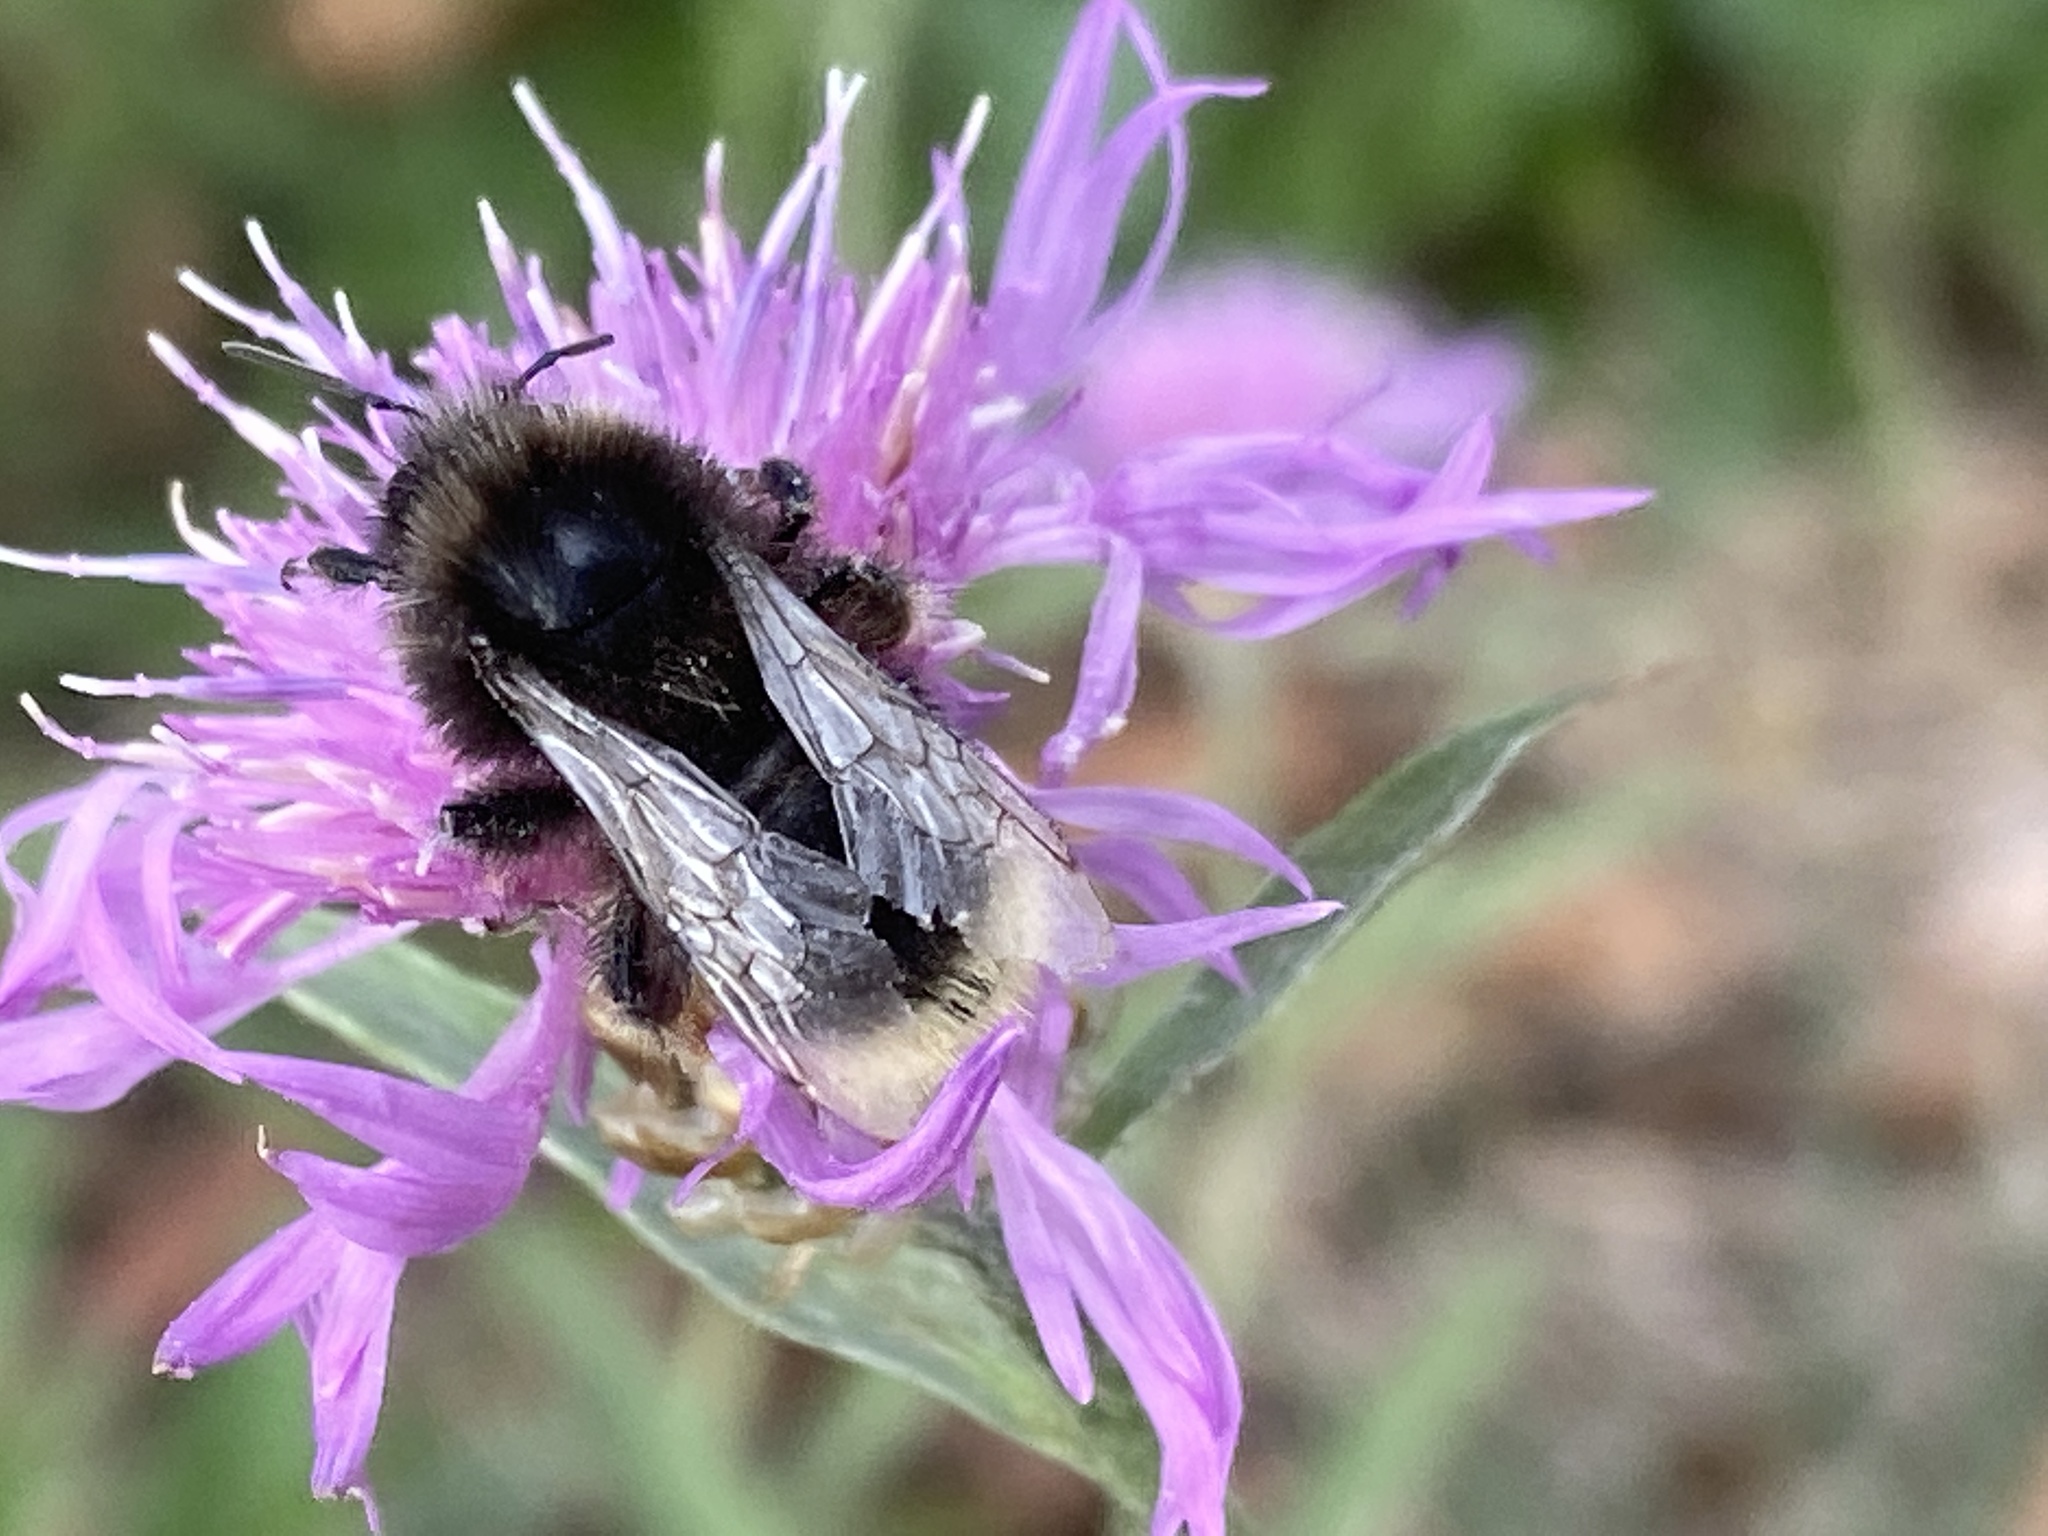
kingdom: Animalia
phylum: Arthropoda
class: Insecta
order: Hymenoptera
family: Apidae
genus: Bombus
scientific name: Bombus lapidarius
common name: Large red-tailed humble-bee
